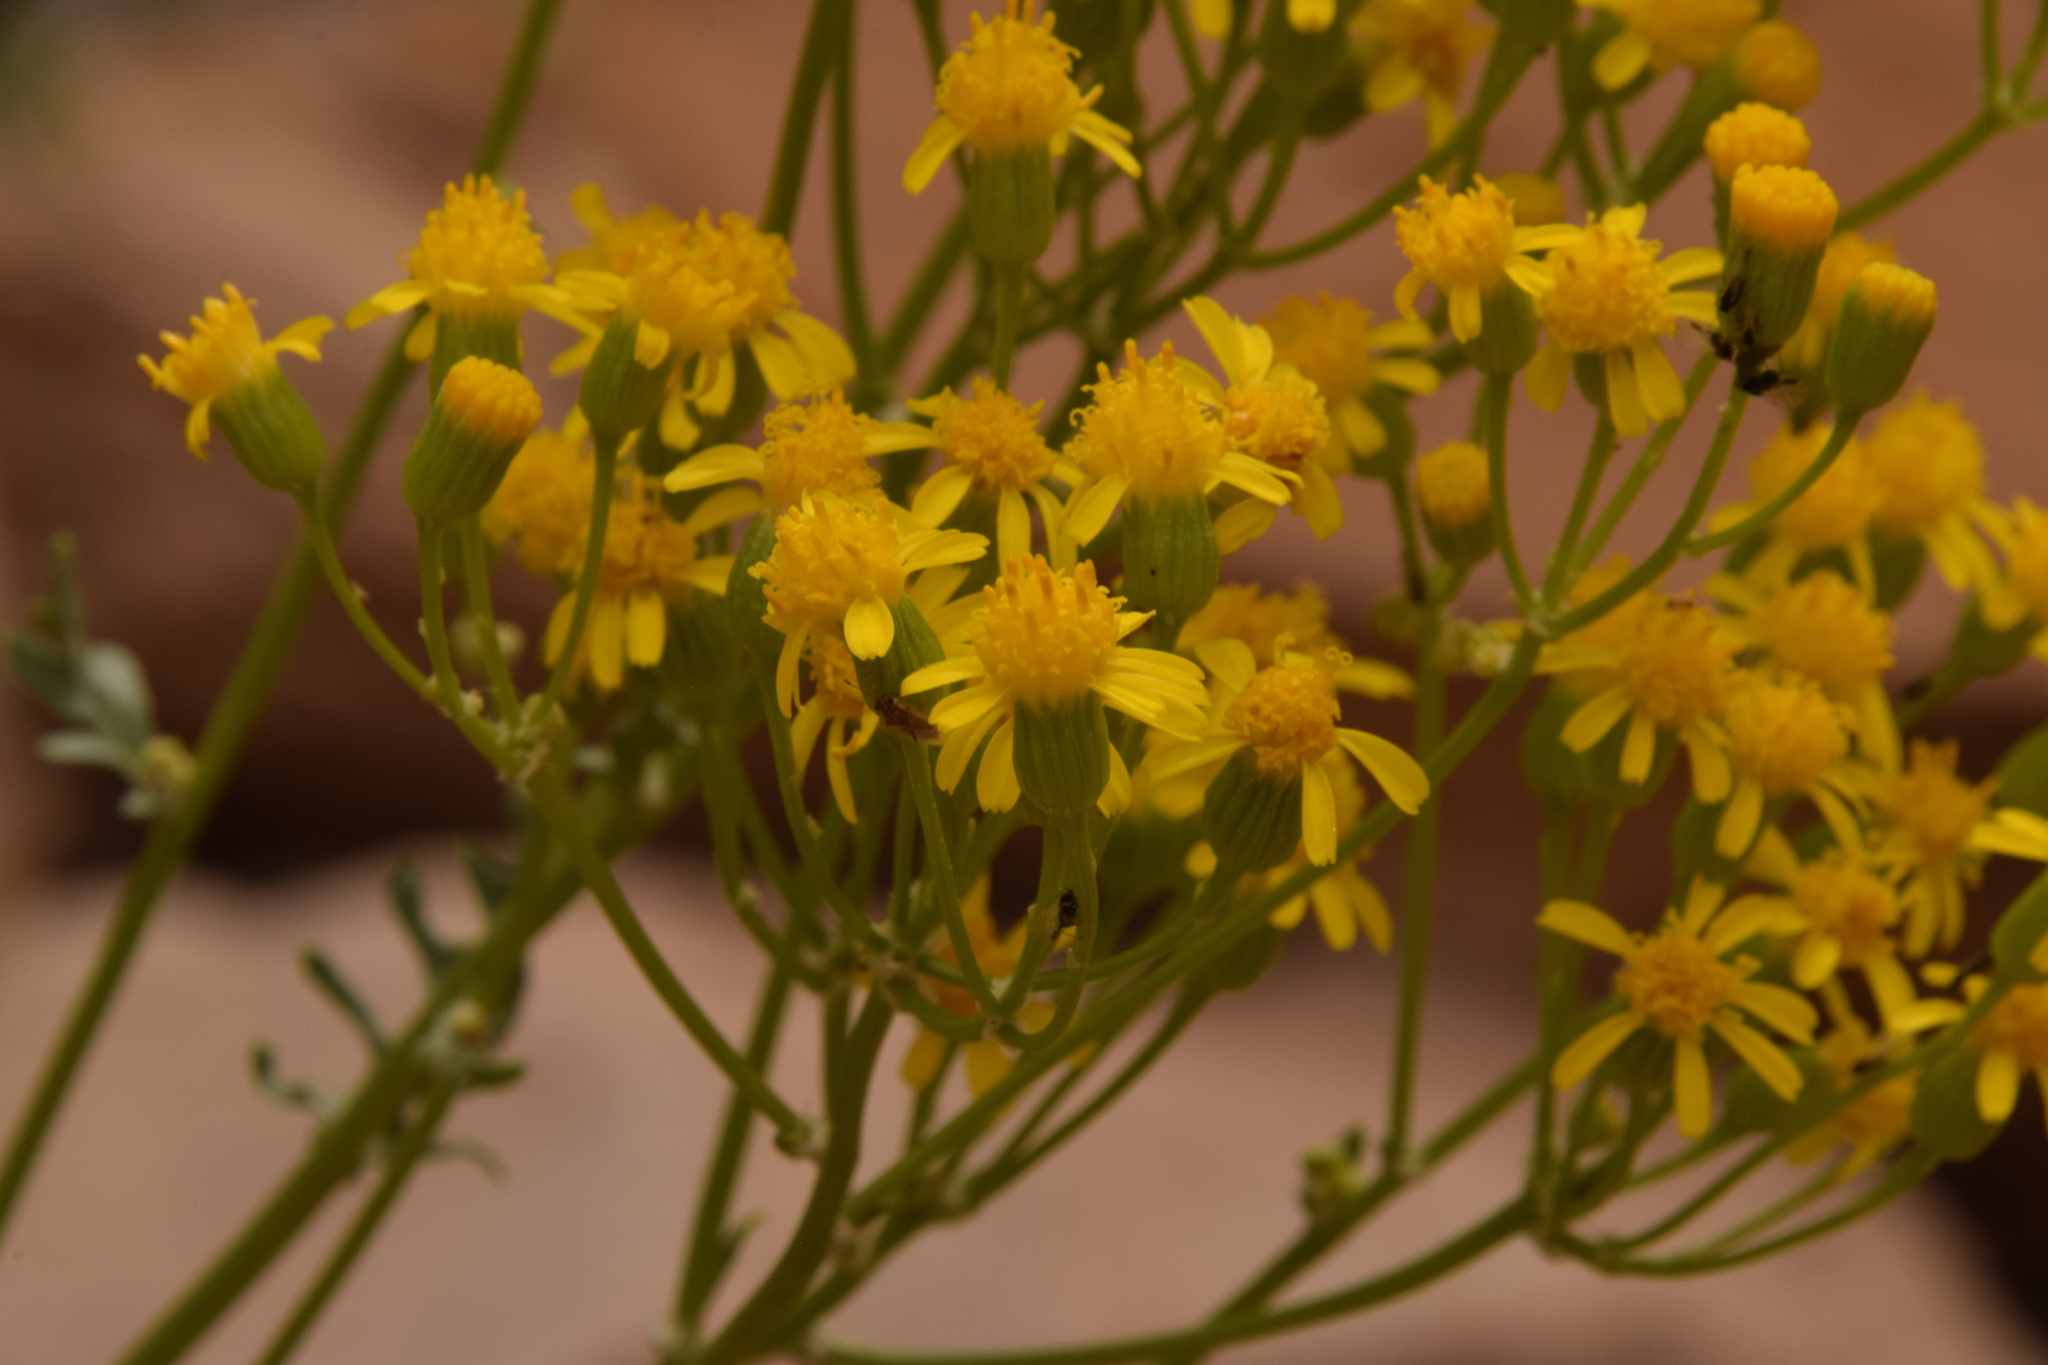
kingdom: Plantae
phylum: Tracheophyta
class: Magnoliopsida
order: Asterales
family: Asteraceae
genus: Packera
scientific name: Packera multilobata
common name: Lobe-leaf groundsel
